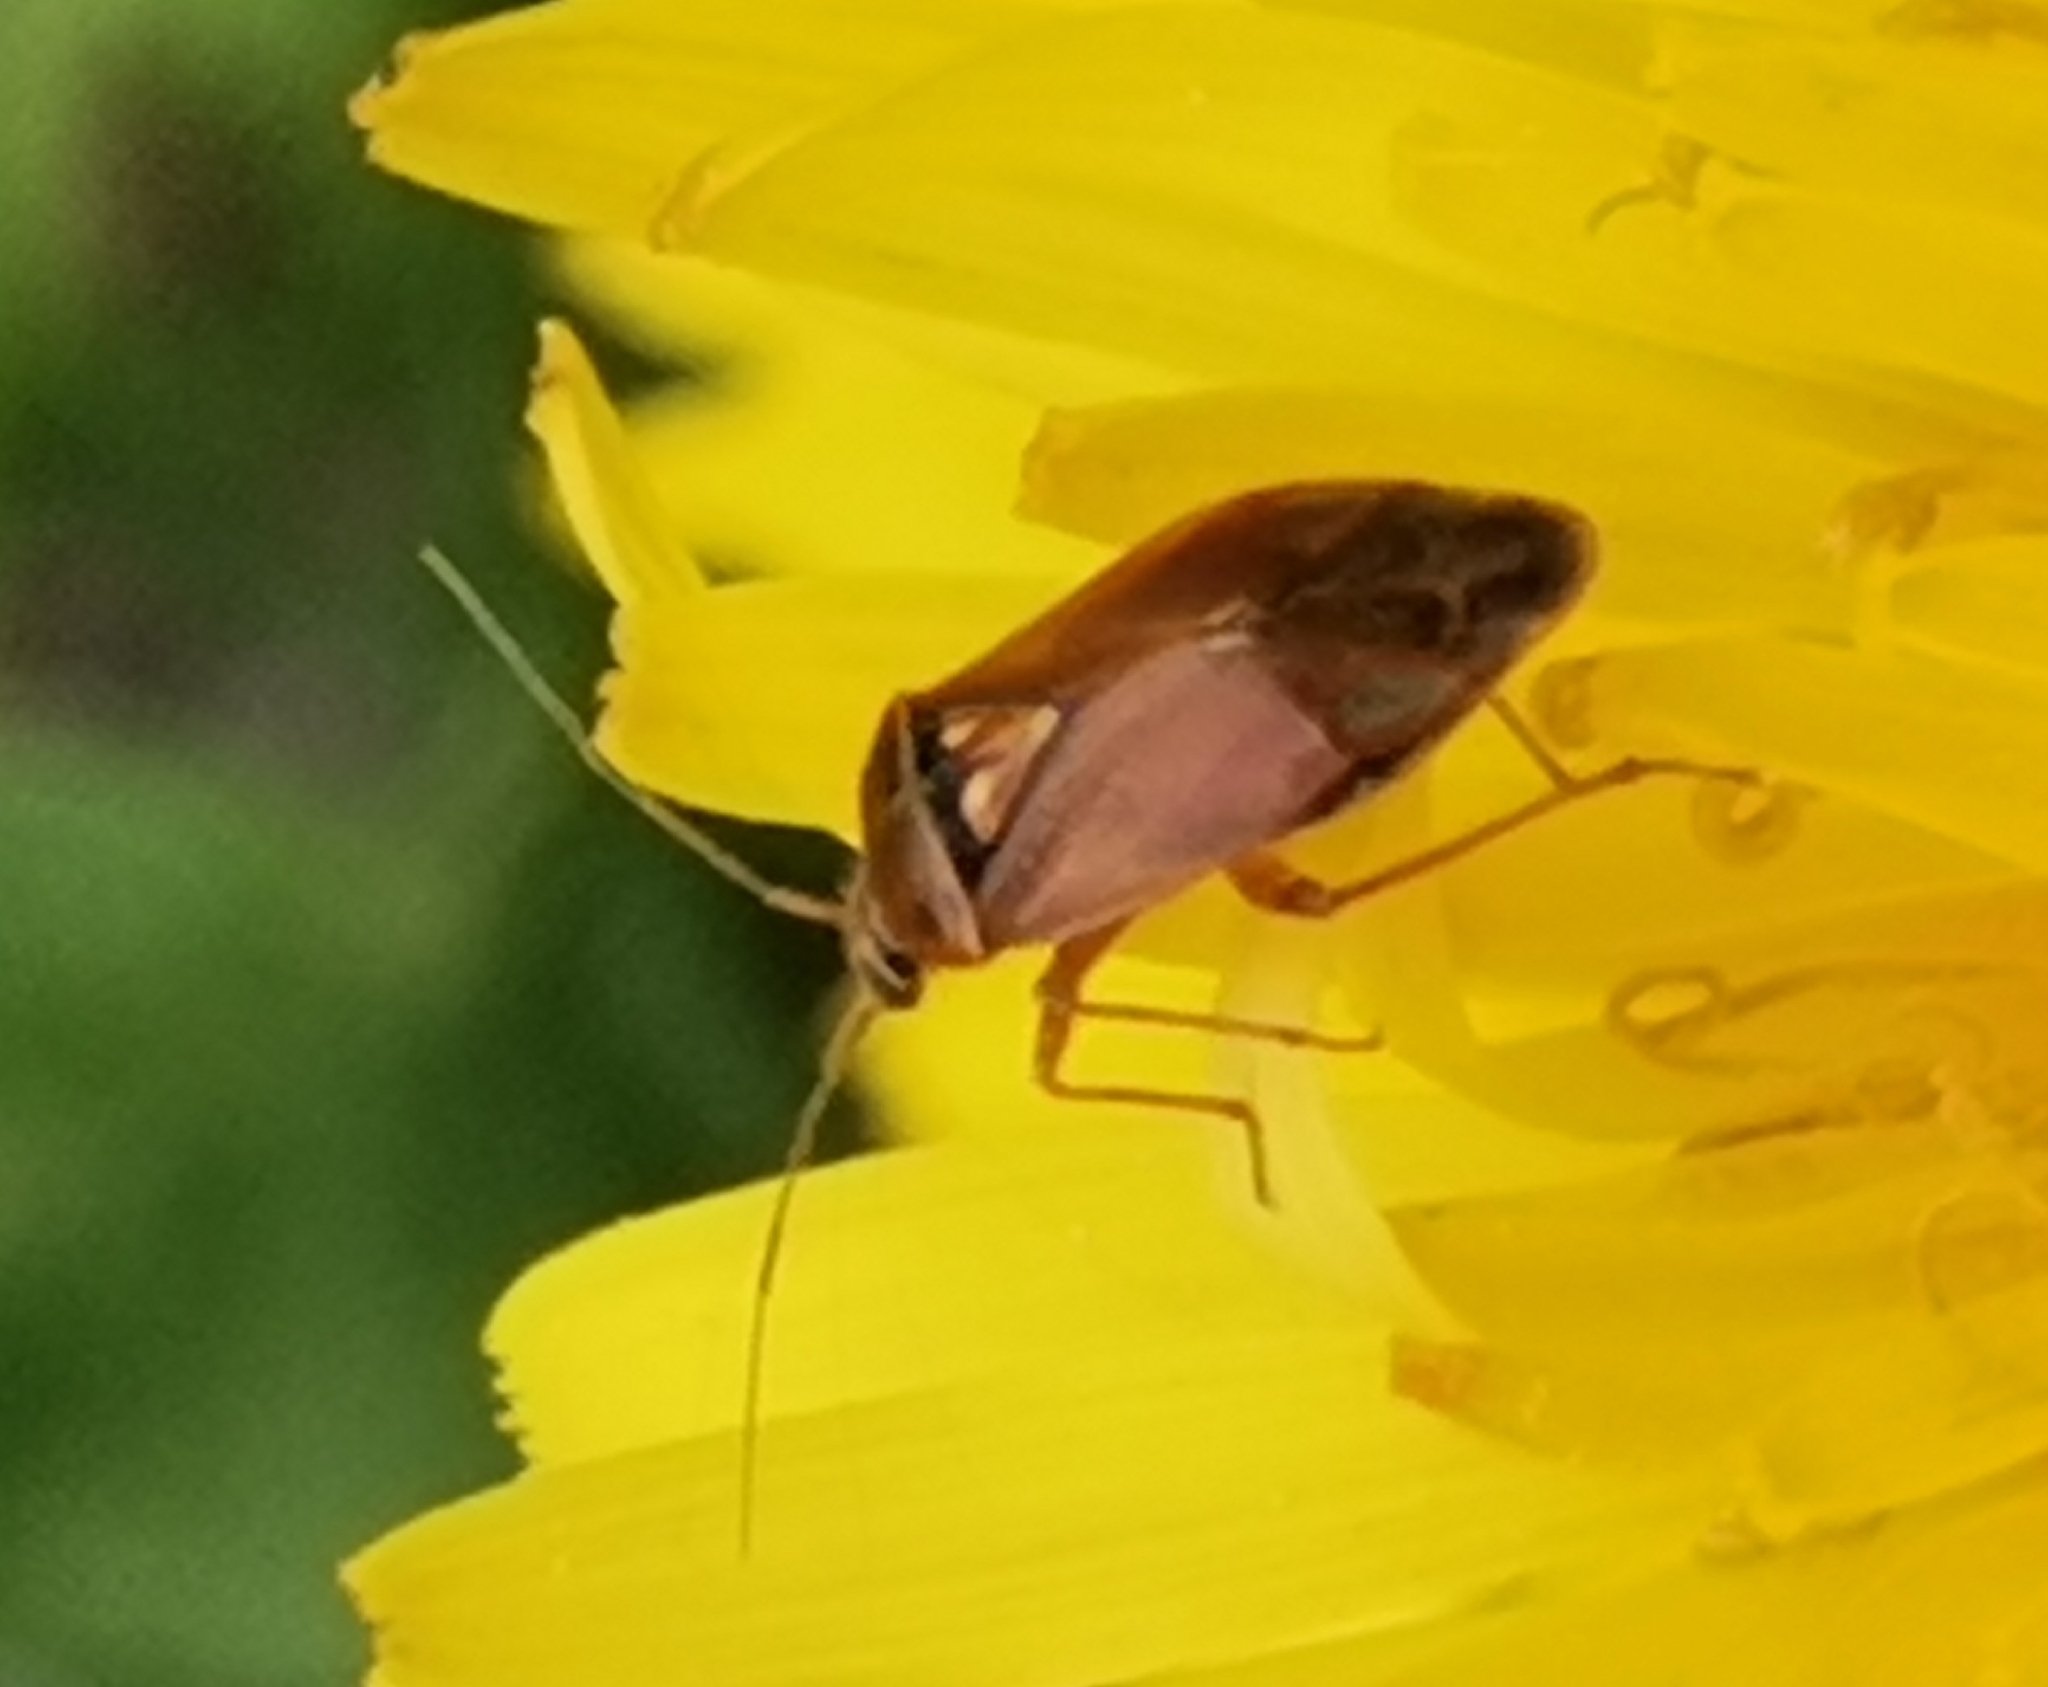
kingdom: Animalia
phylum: Arthropoda
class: Insecta
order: Hemiptera
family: Miridae
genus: Lygus
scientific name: Lygus wagneri
